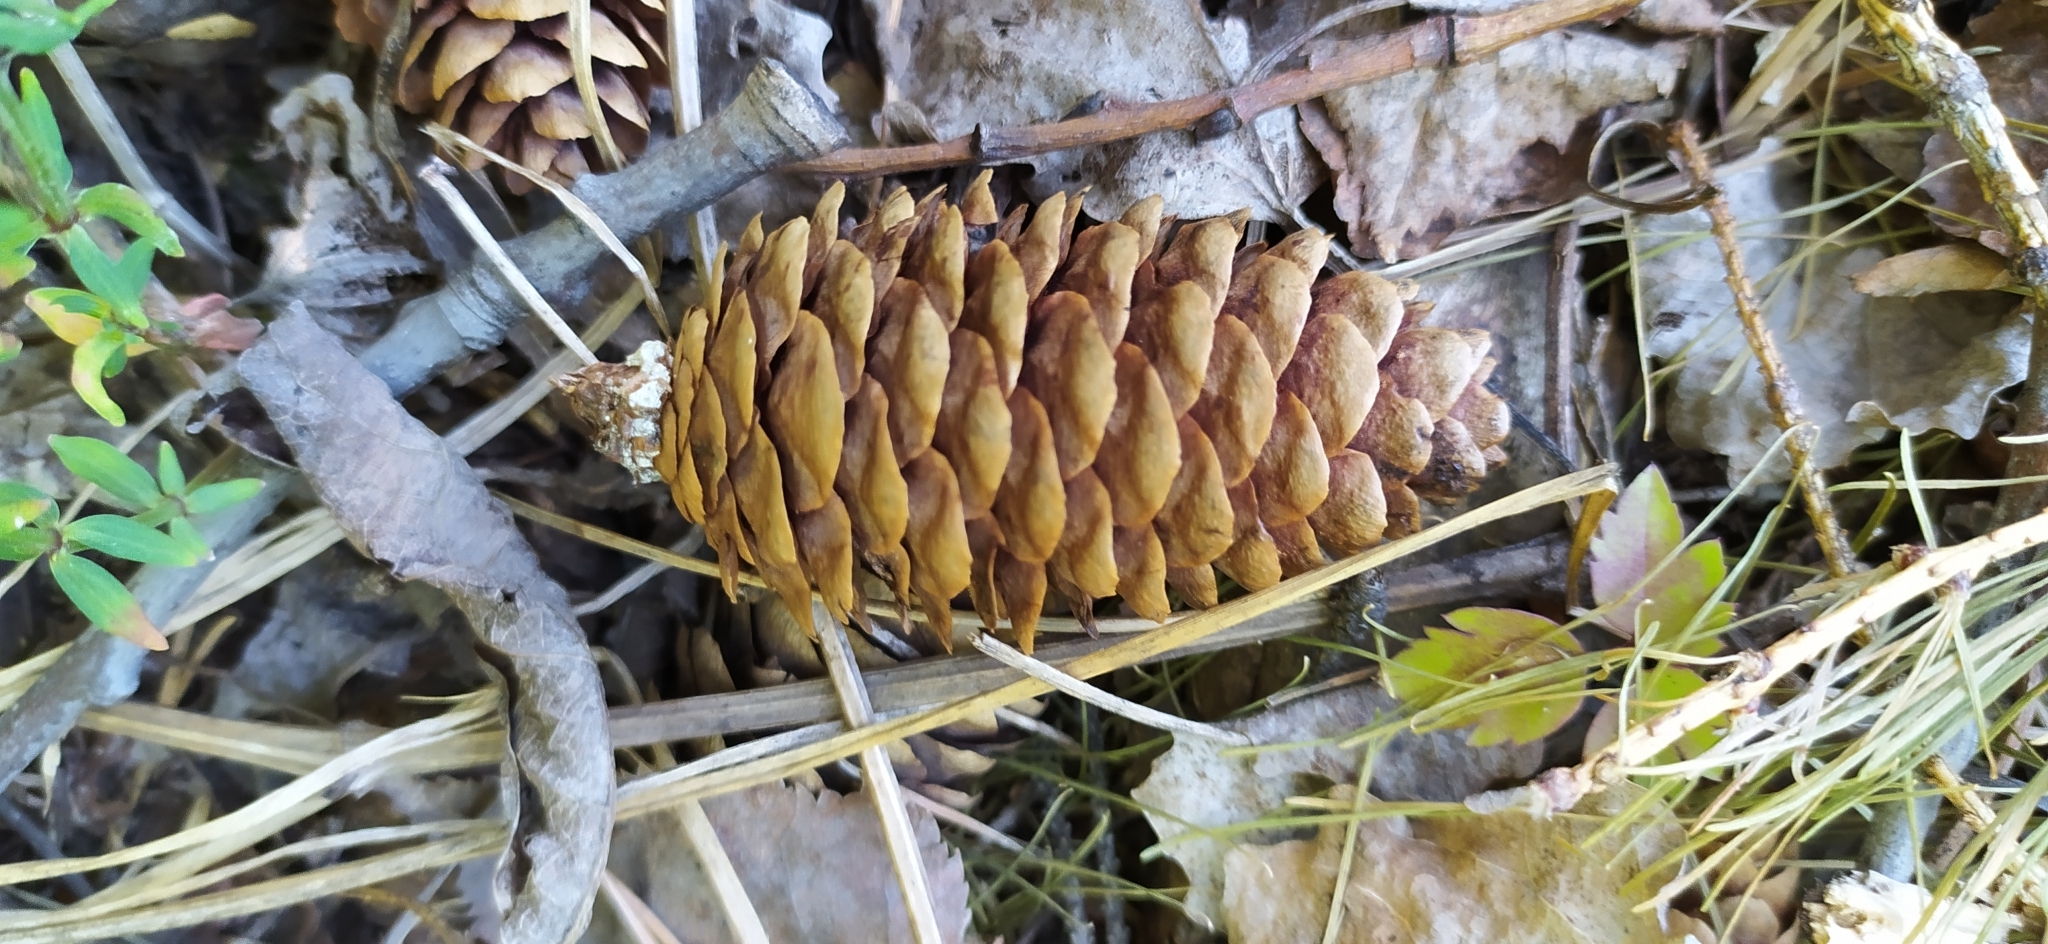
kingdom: Plantae
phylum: Tracheophyta
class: Pinopsida
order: Pinales
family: Pinaceae
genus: Picea
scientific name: Picea obovata
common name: Siberian spruce
